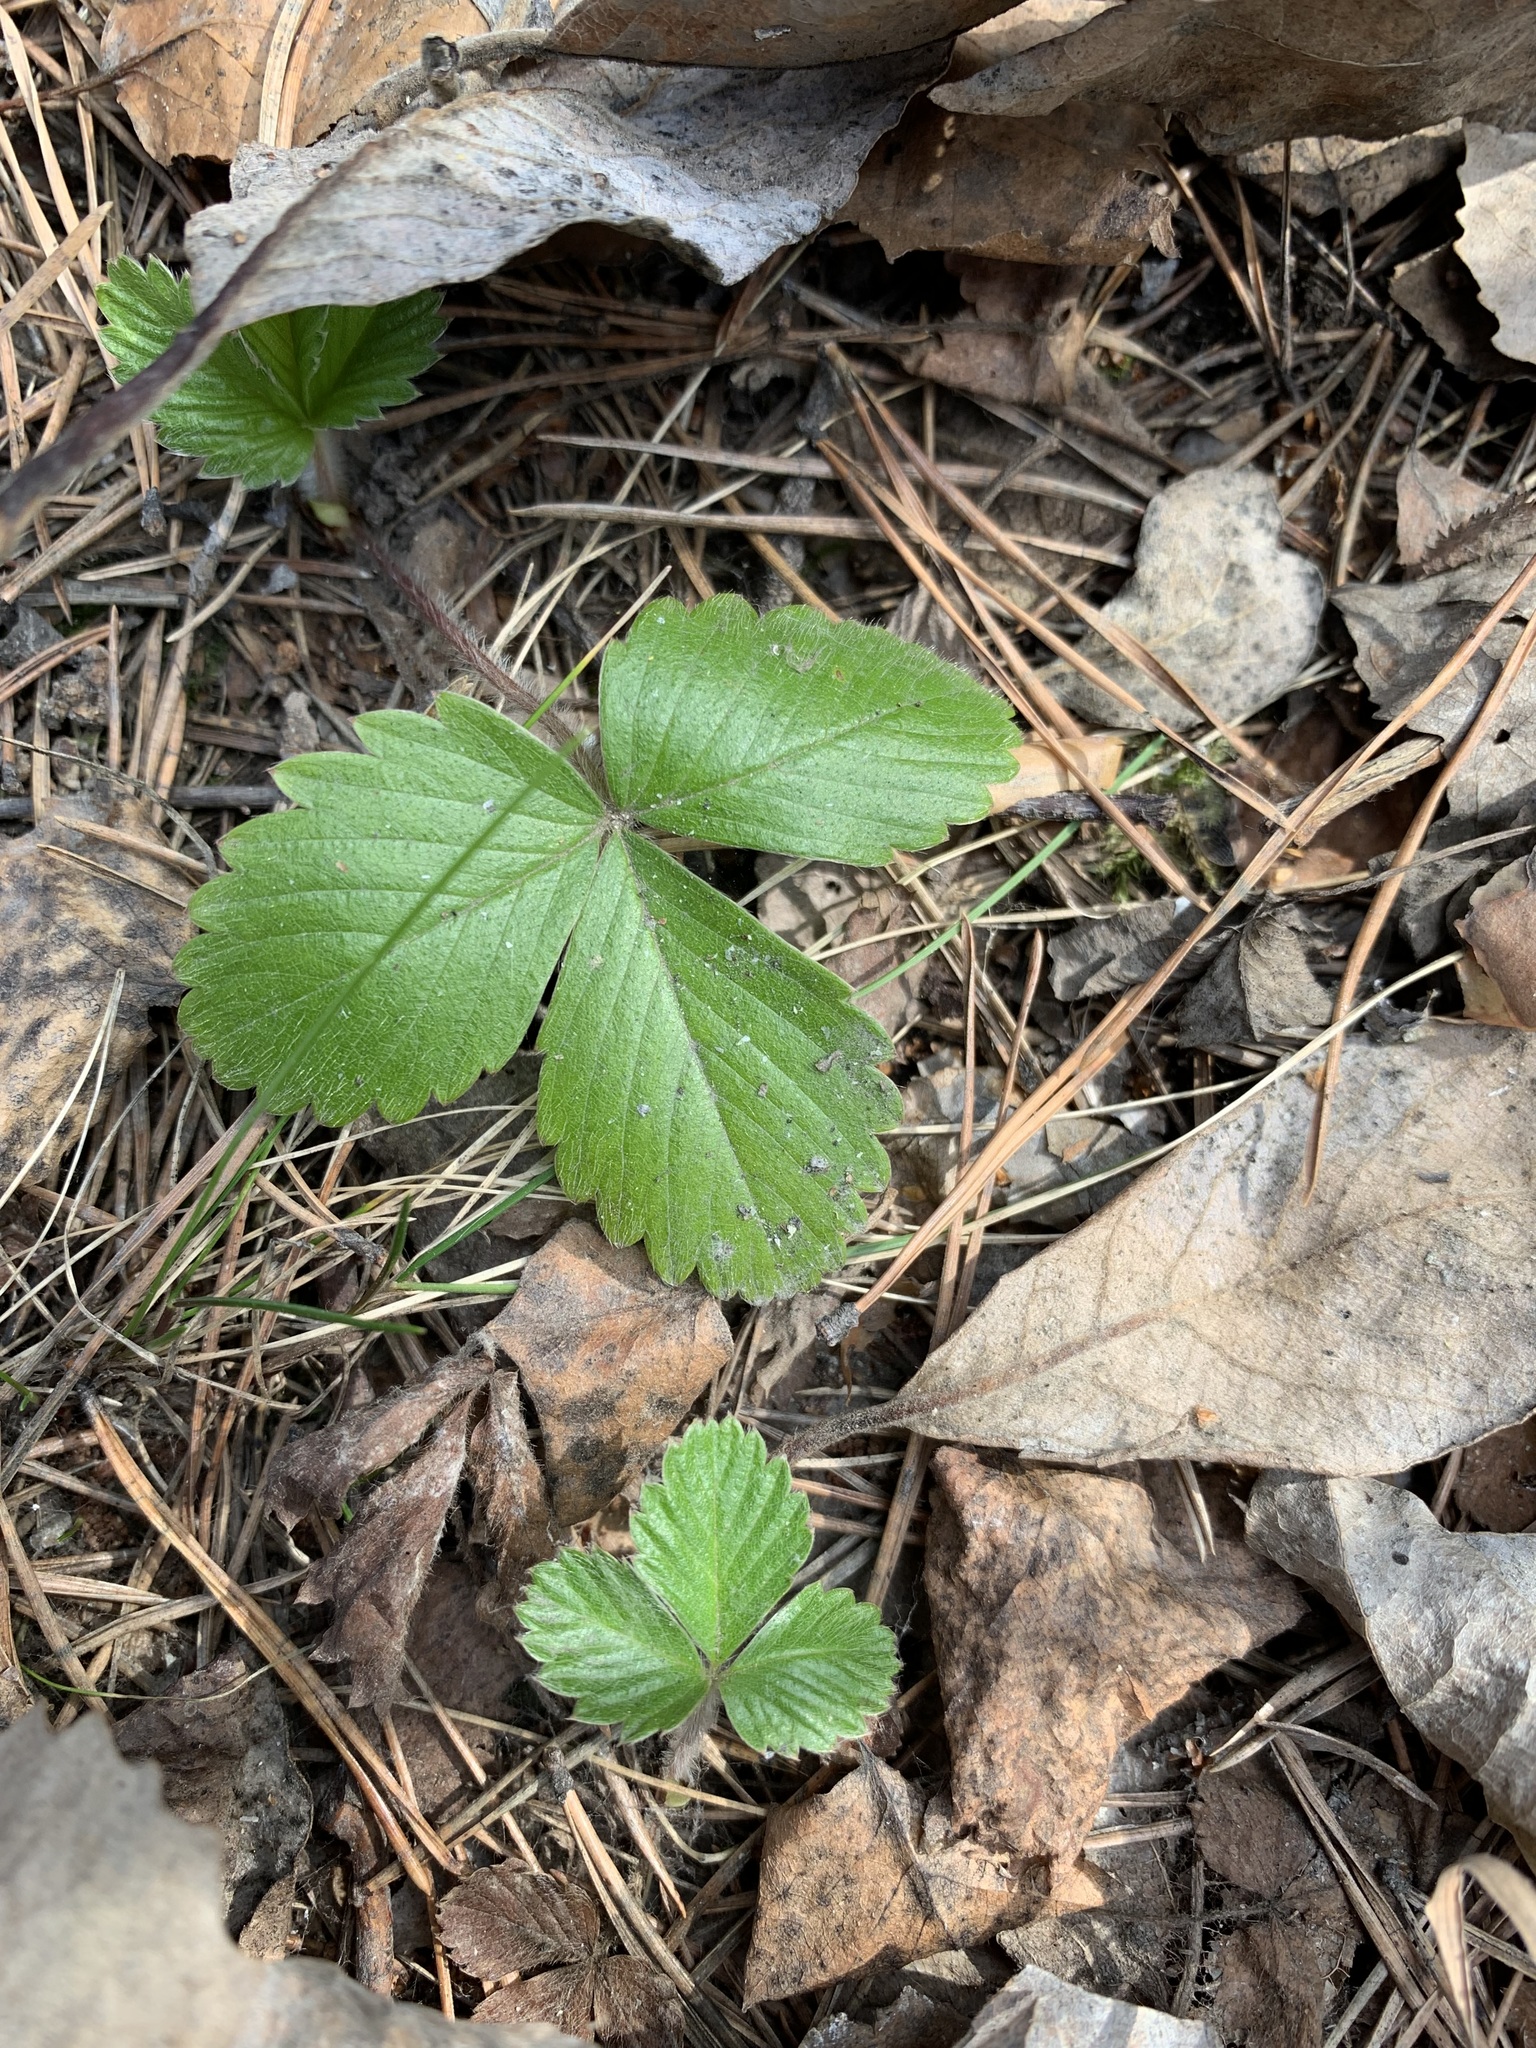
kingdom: Plantae
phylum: Tracheophyta
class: Magnoliopsida
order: Rosales
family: Rosaceae
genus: Fragaria
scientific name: Fragaria vesca
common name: Wild strawberry
